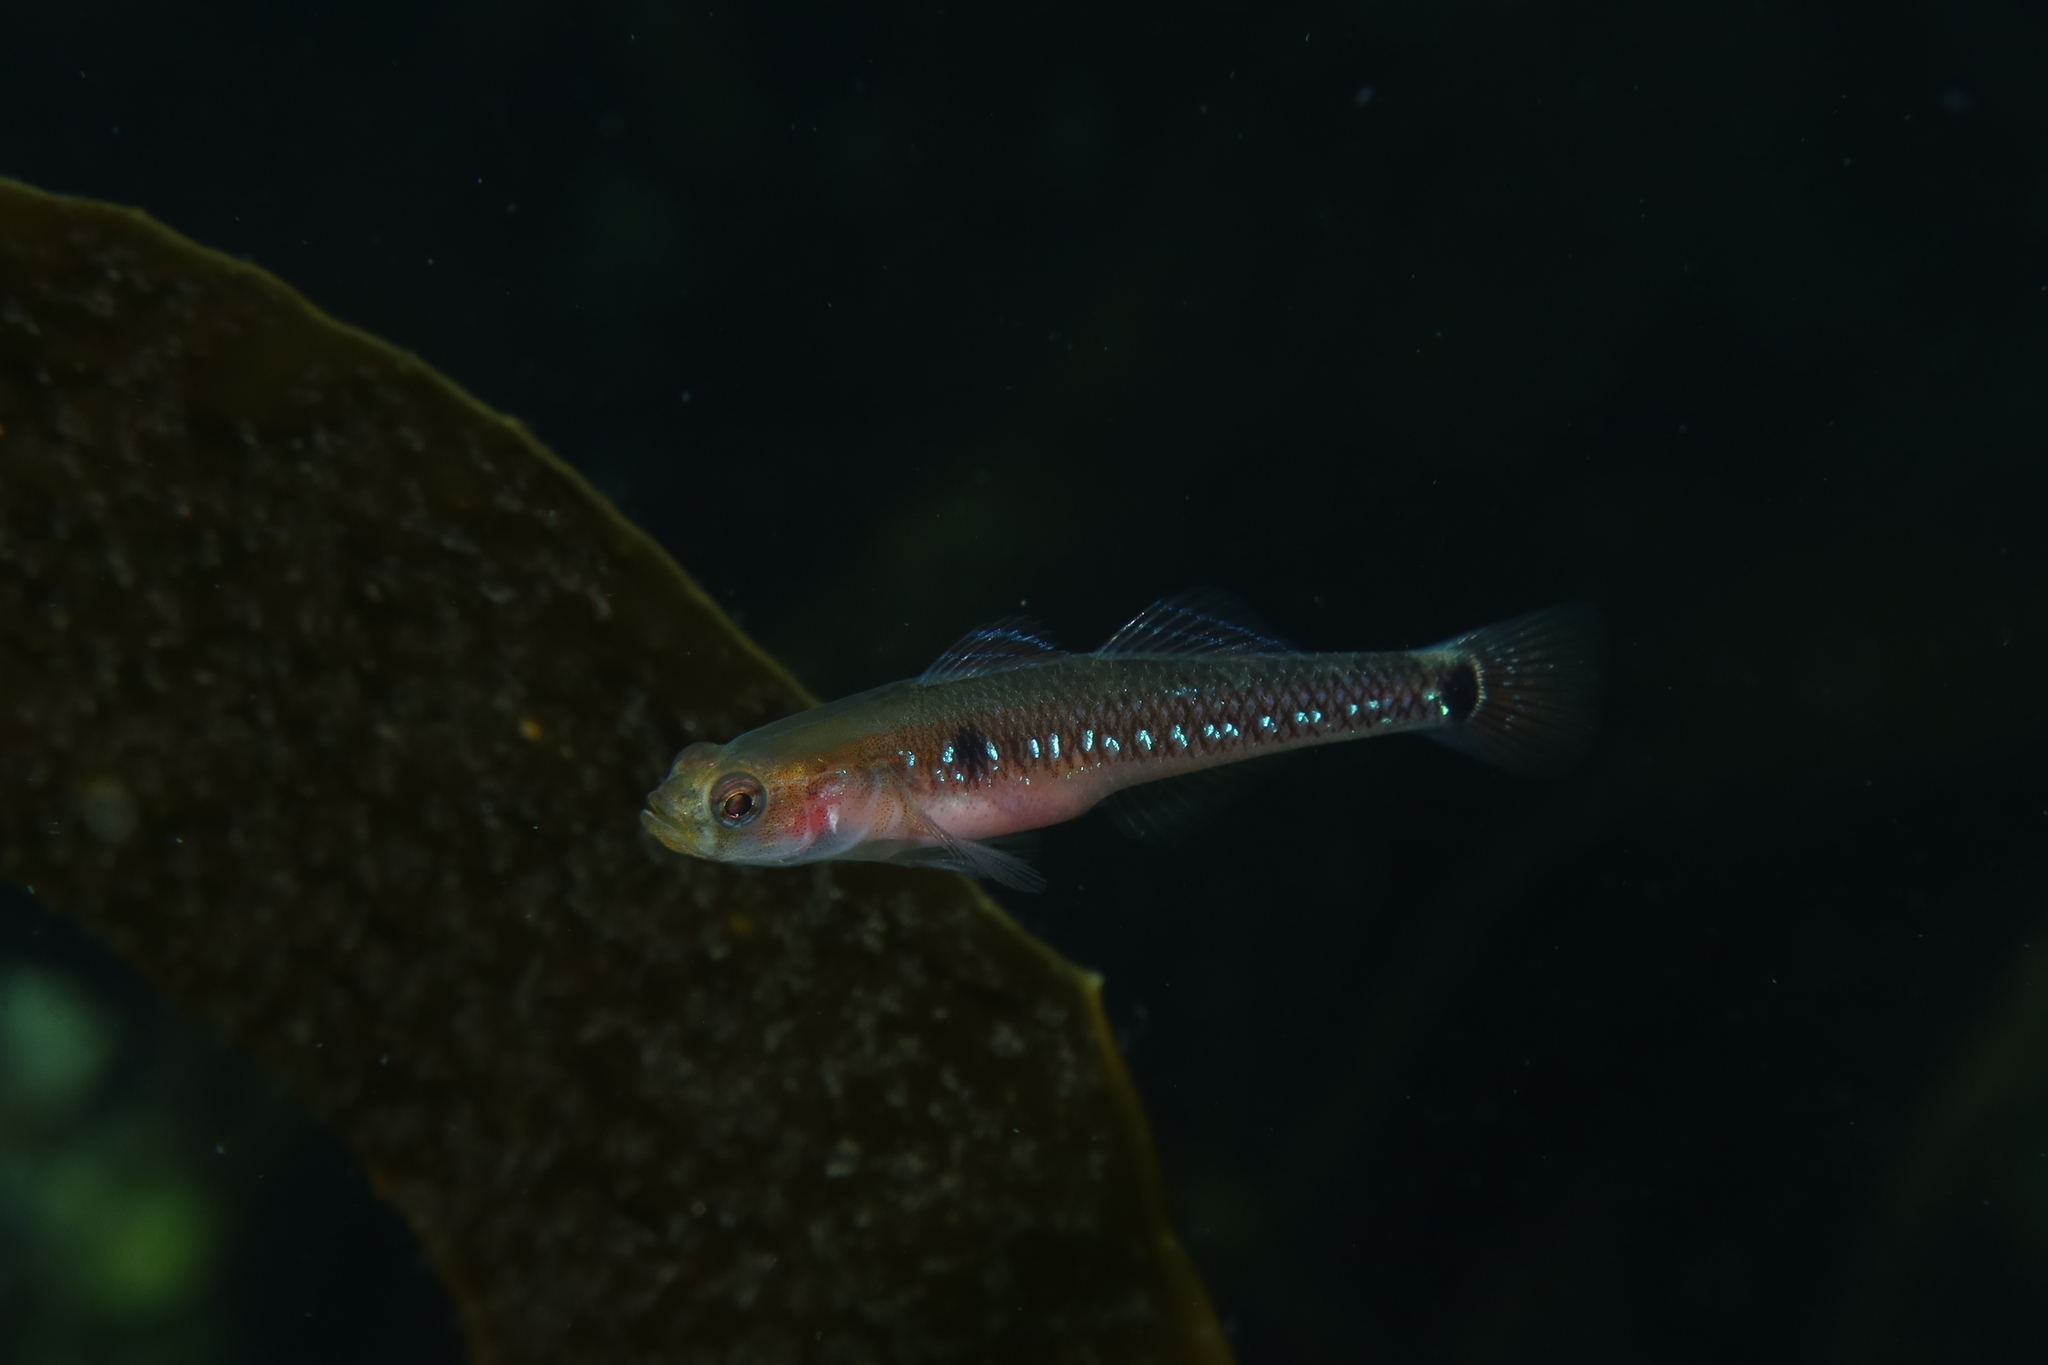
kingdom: Animalia
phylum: Chordata
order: Perciformes
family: Gobiidae
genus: Gobiusculus
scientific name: Gobiusculus flavescens
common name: Two-spotted goby
